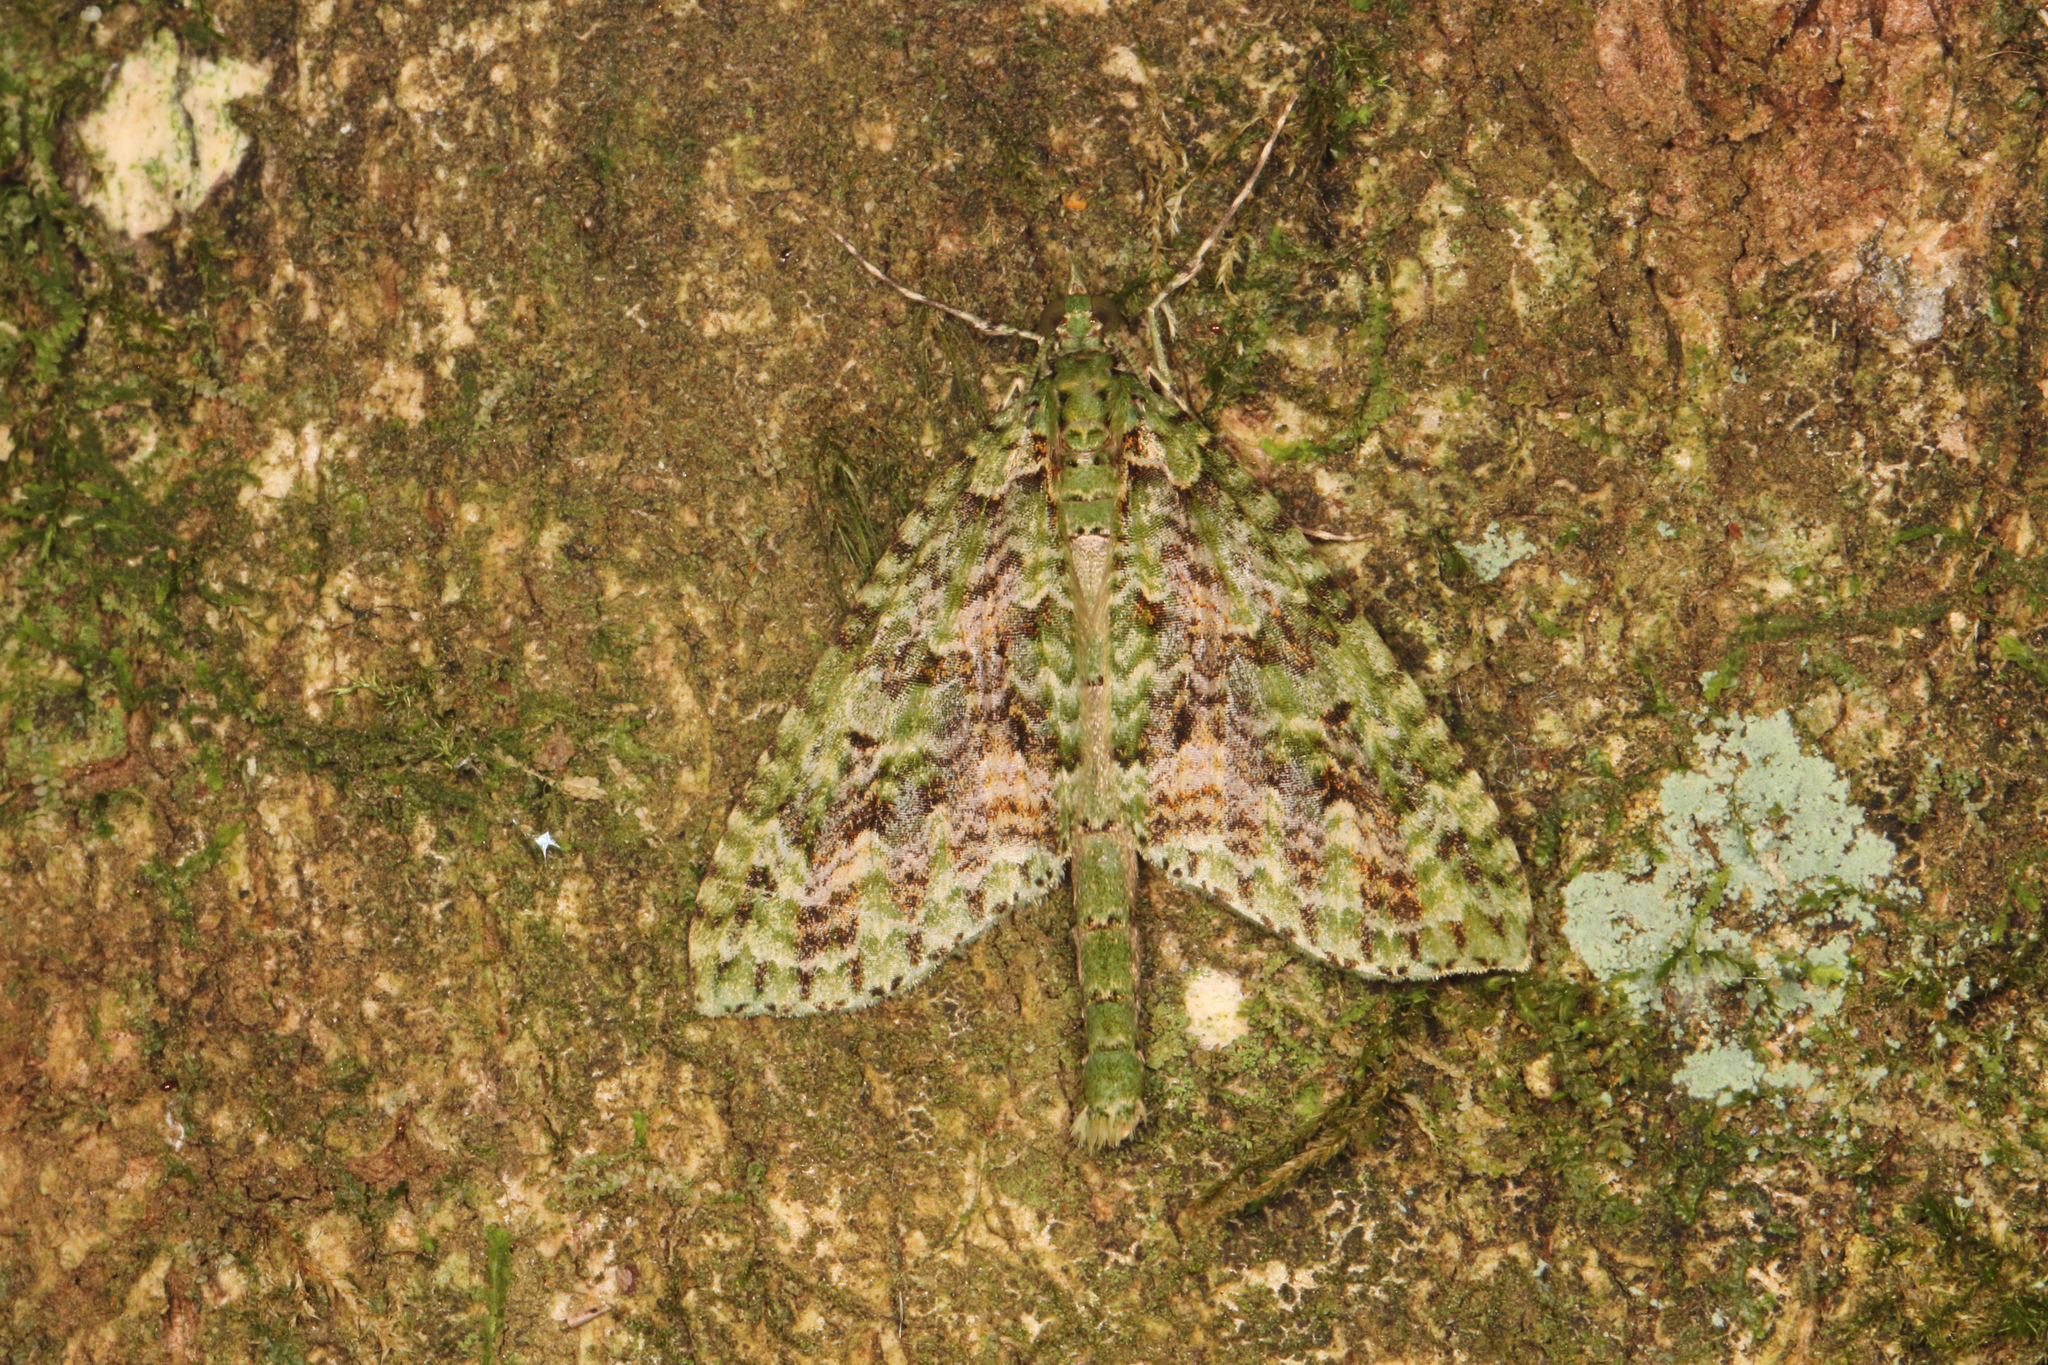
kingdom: Animalia
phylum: Arthropoda
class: Insecta
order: Lepidoptera
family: Geometridae
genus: Tatosoma
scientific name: Tatosoma tipulata
